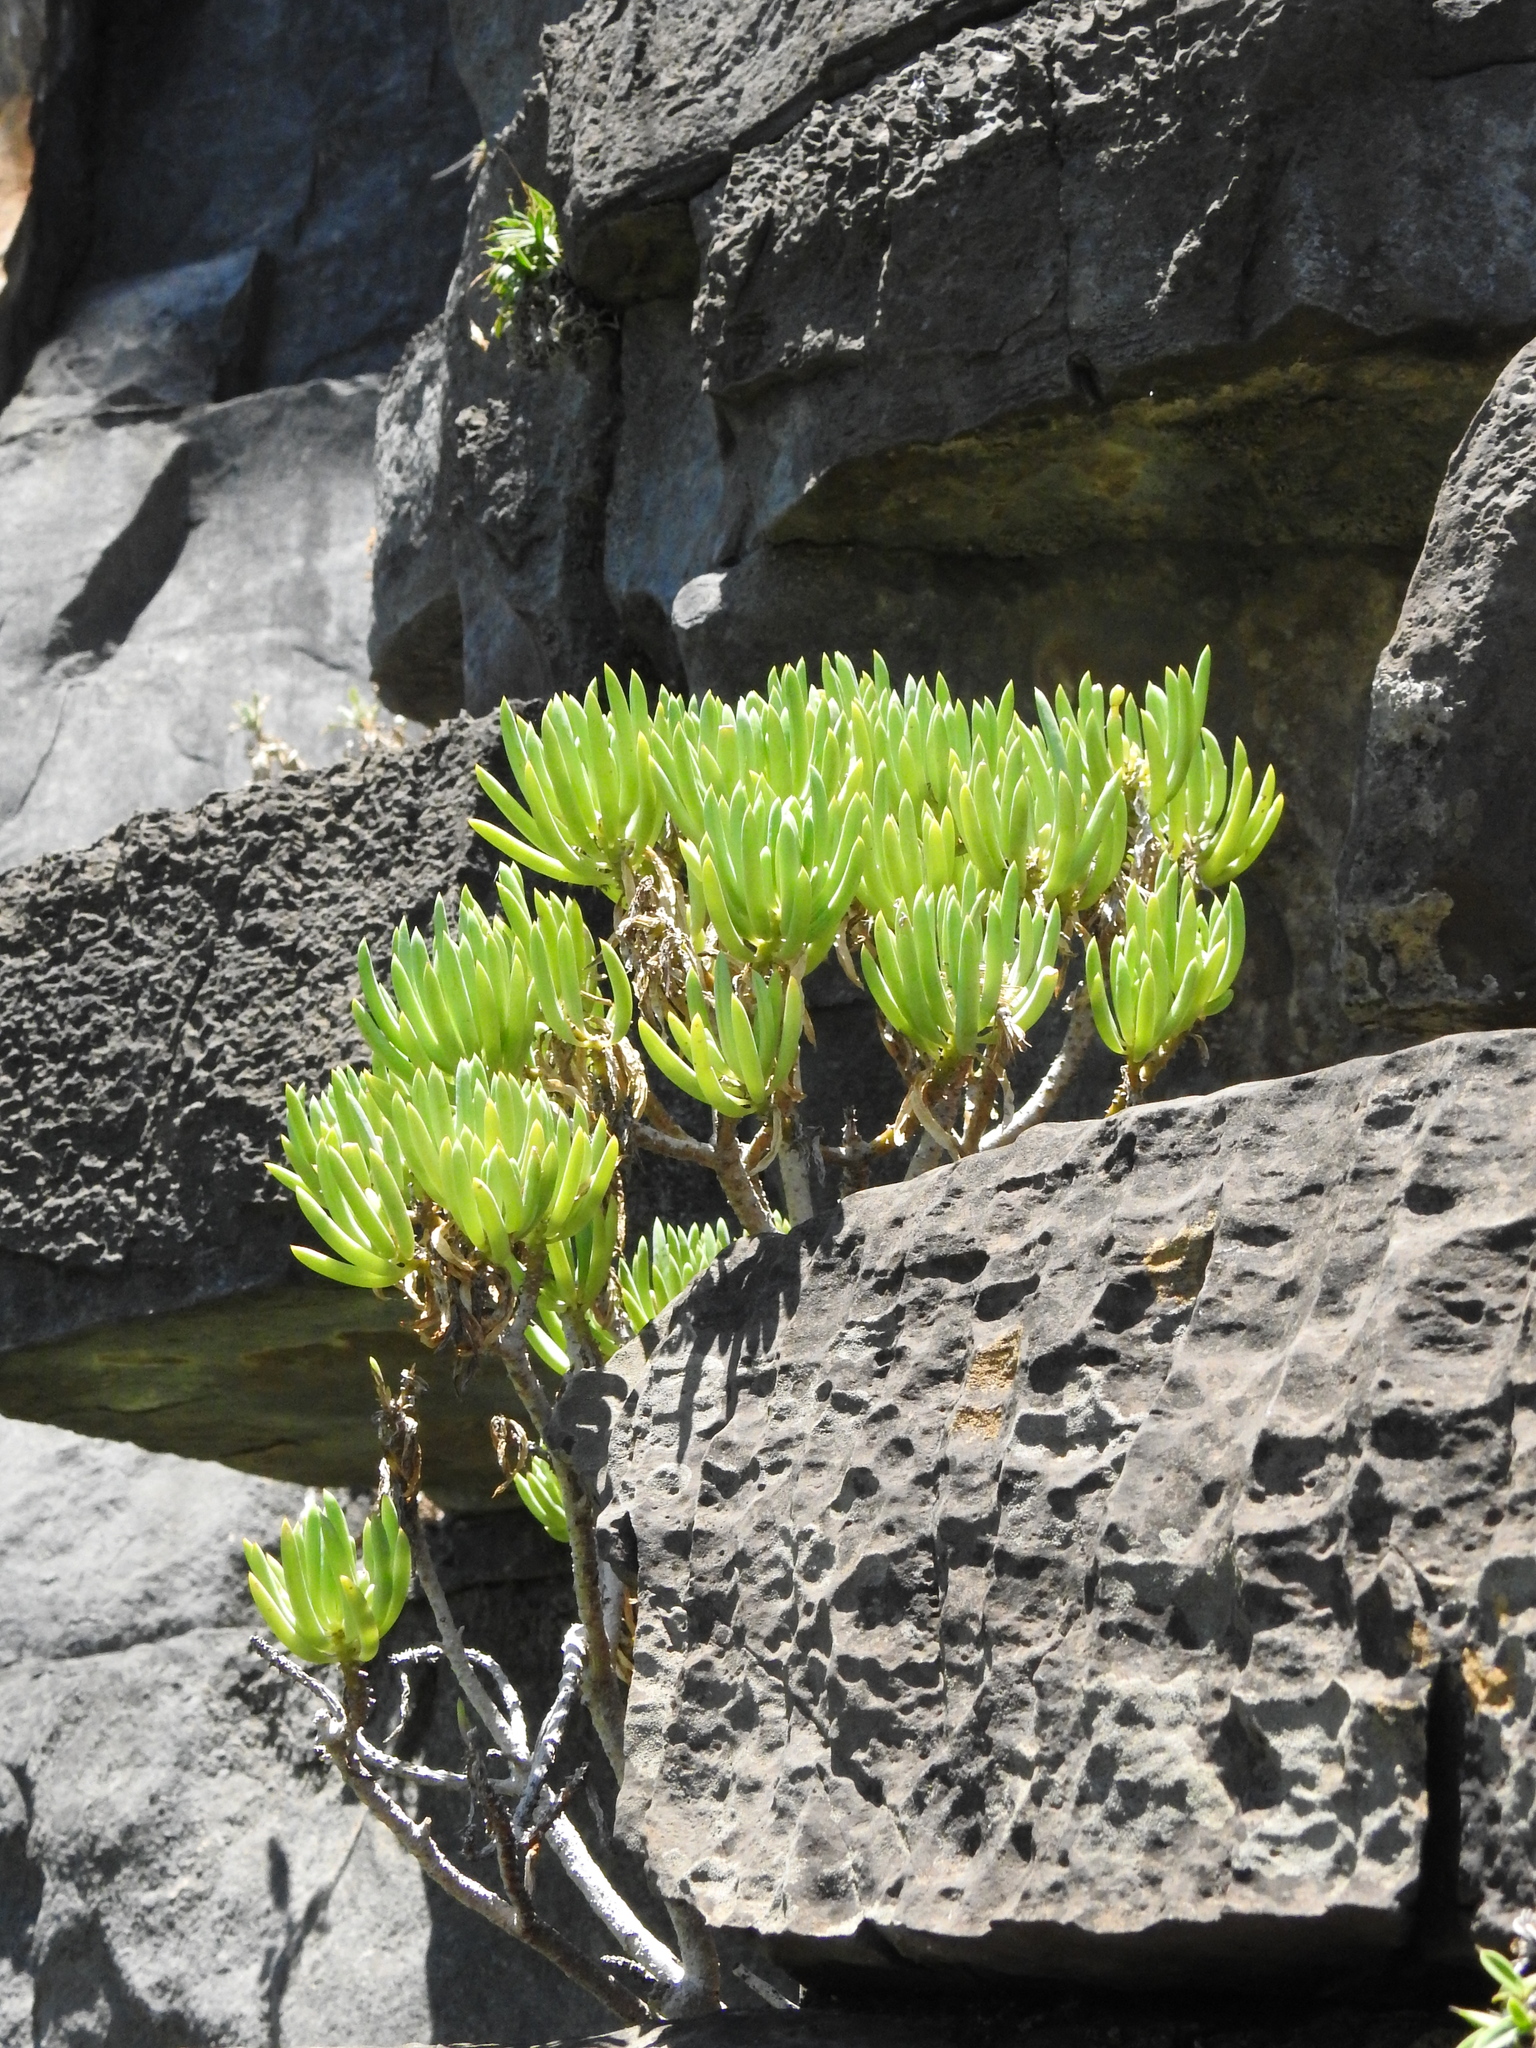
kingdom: Plantae
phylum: Tracheophyta
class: Magnoliopsida
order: Asterales
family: Asteraceae
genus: Kleinia
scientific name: Kleinia barbertonica
